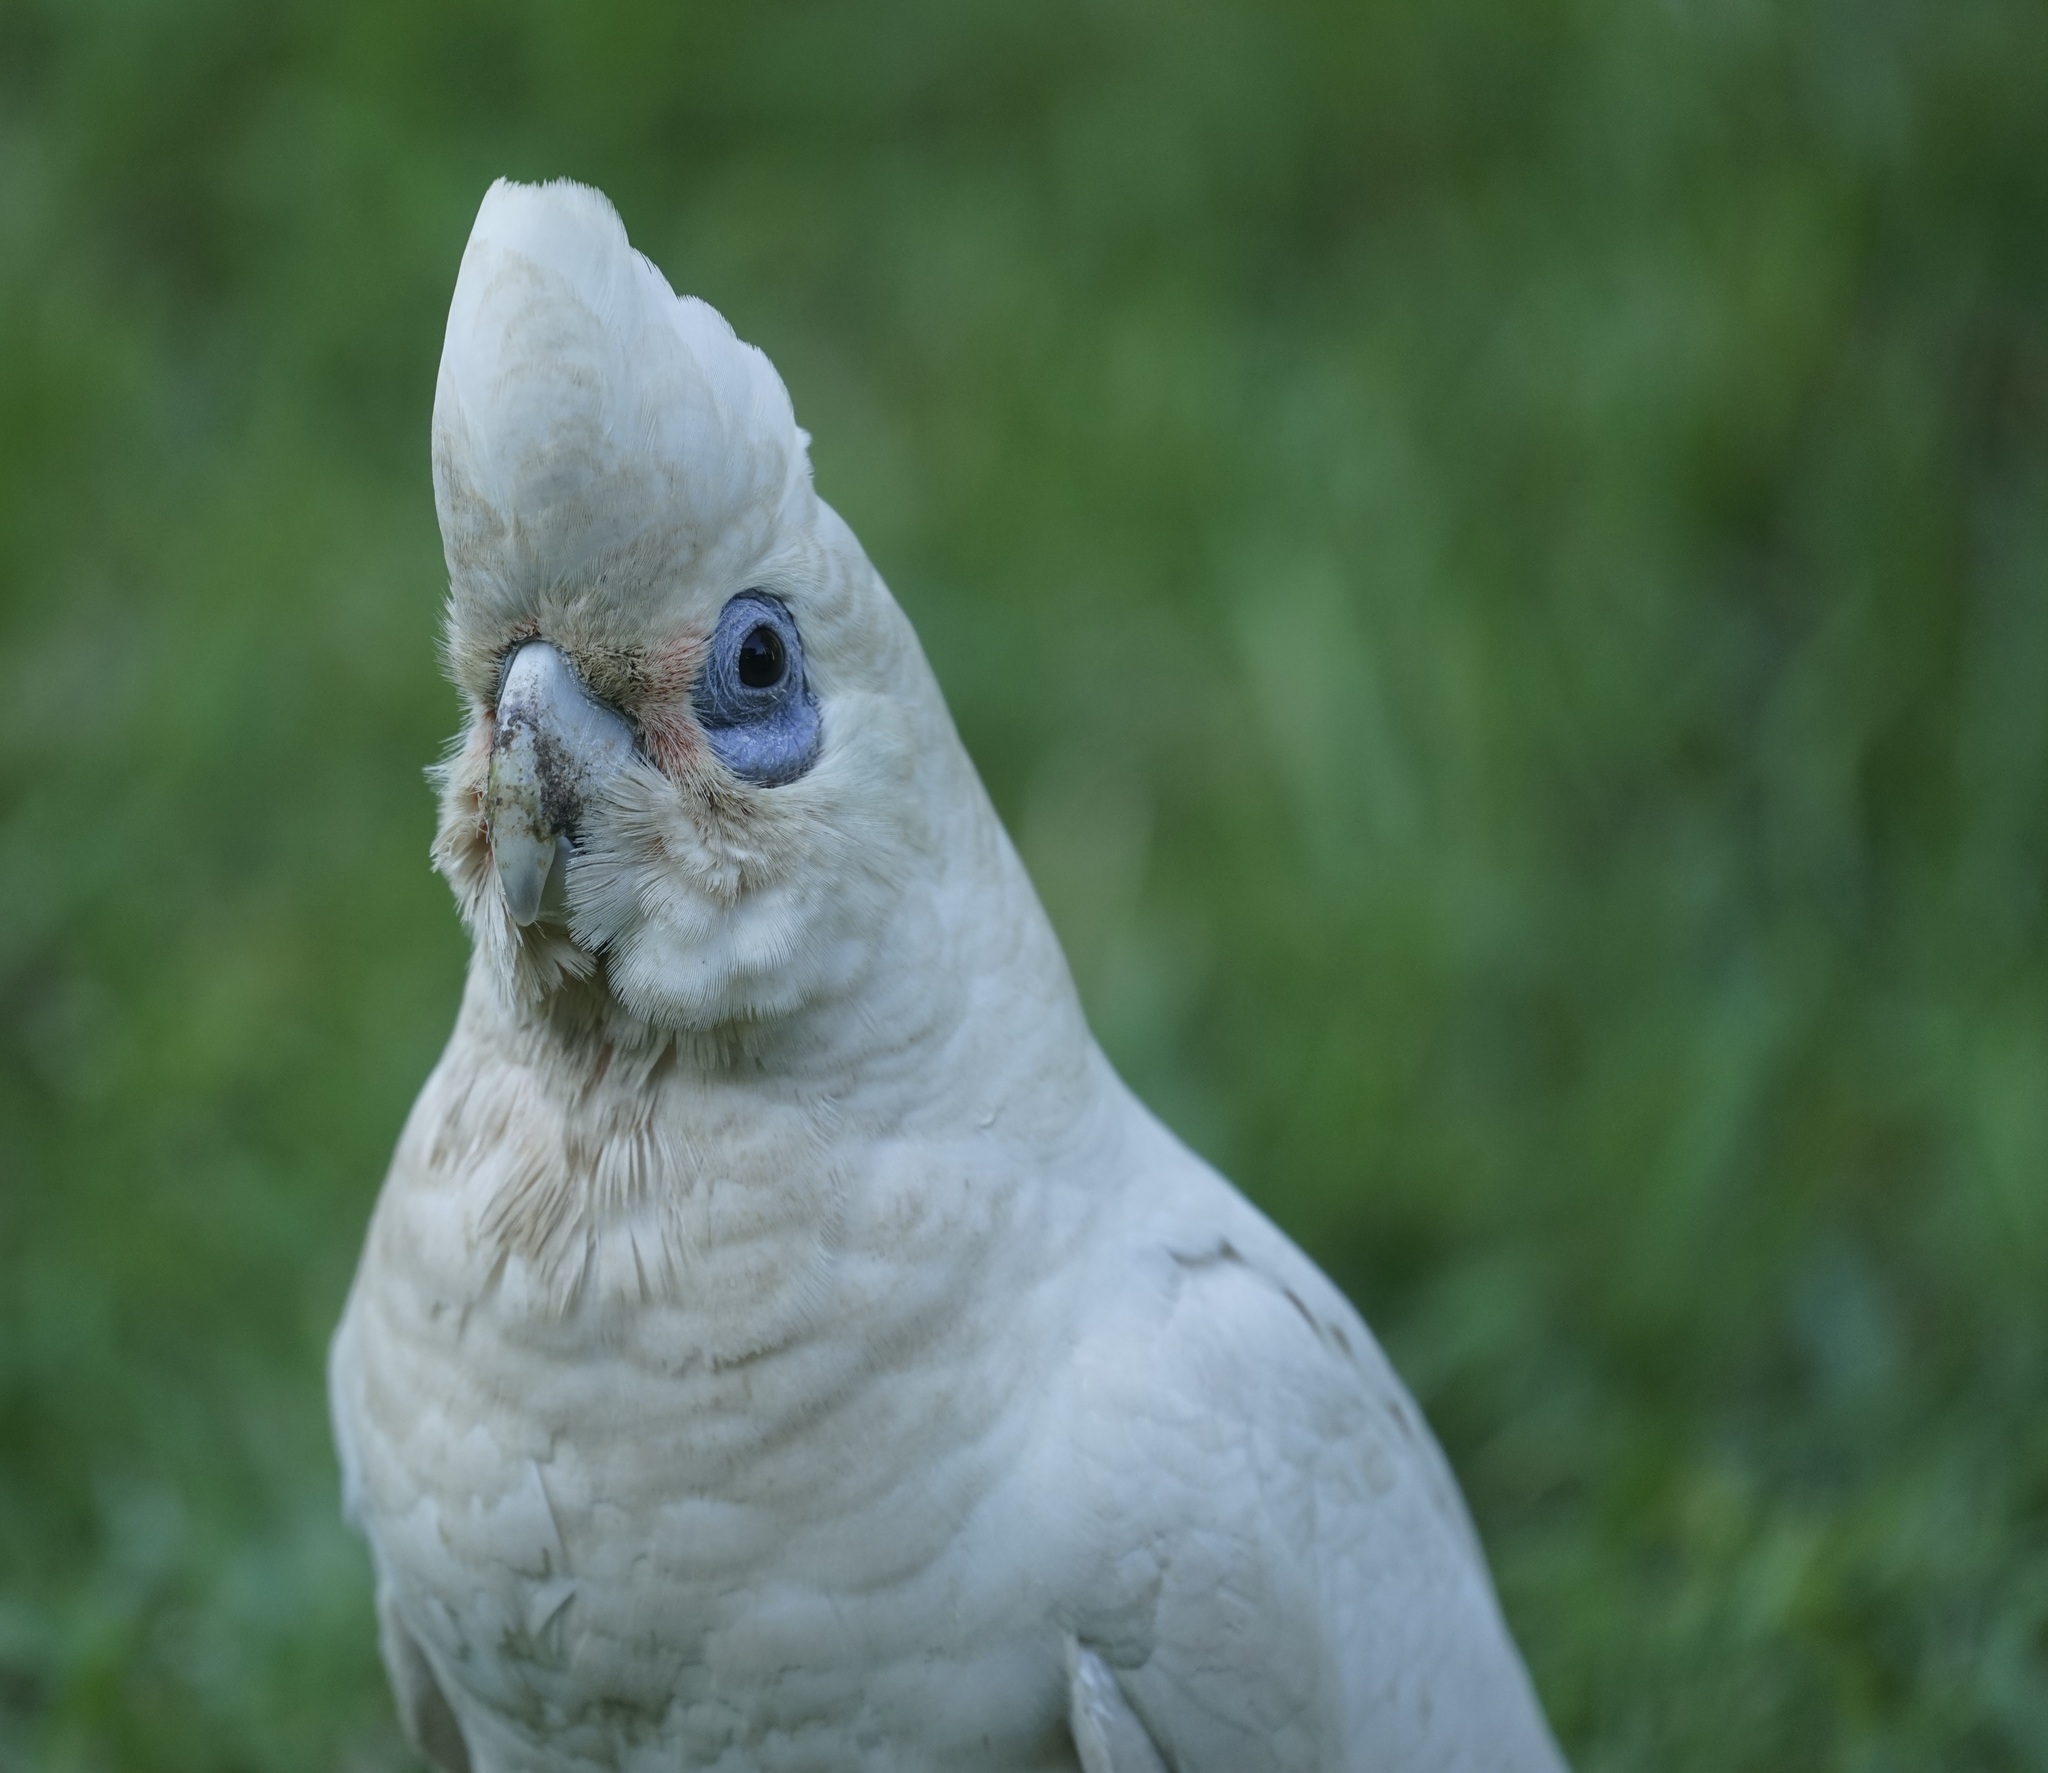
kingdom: Animalia
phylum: Chordata
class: Aves
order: Psittaciformes
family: Psittacidae
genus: Cacatua
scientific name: Cacatua sanguinea
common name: Little corella
